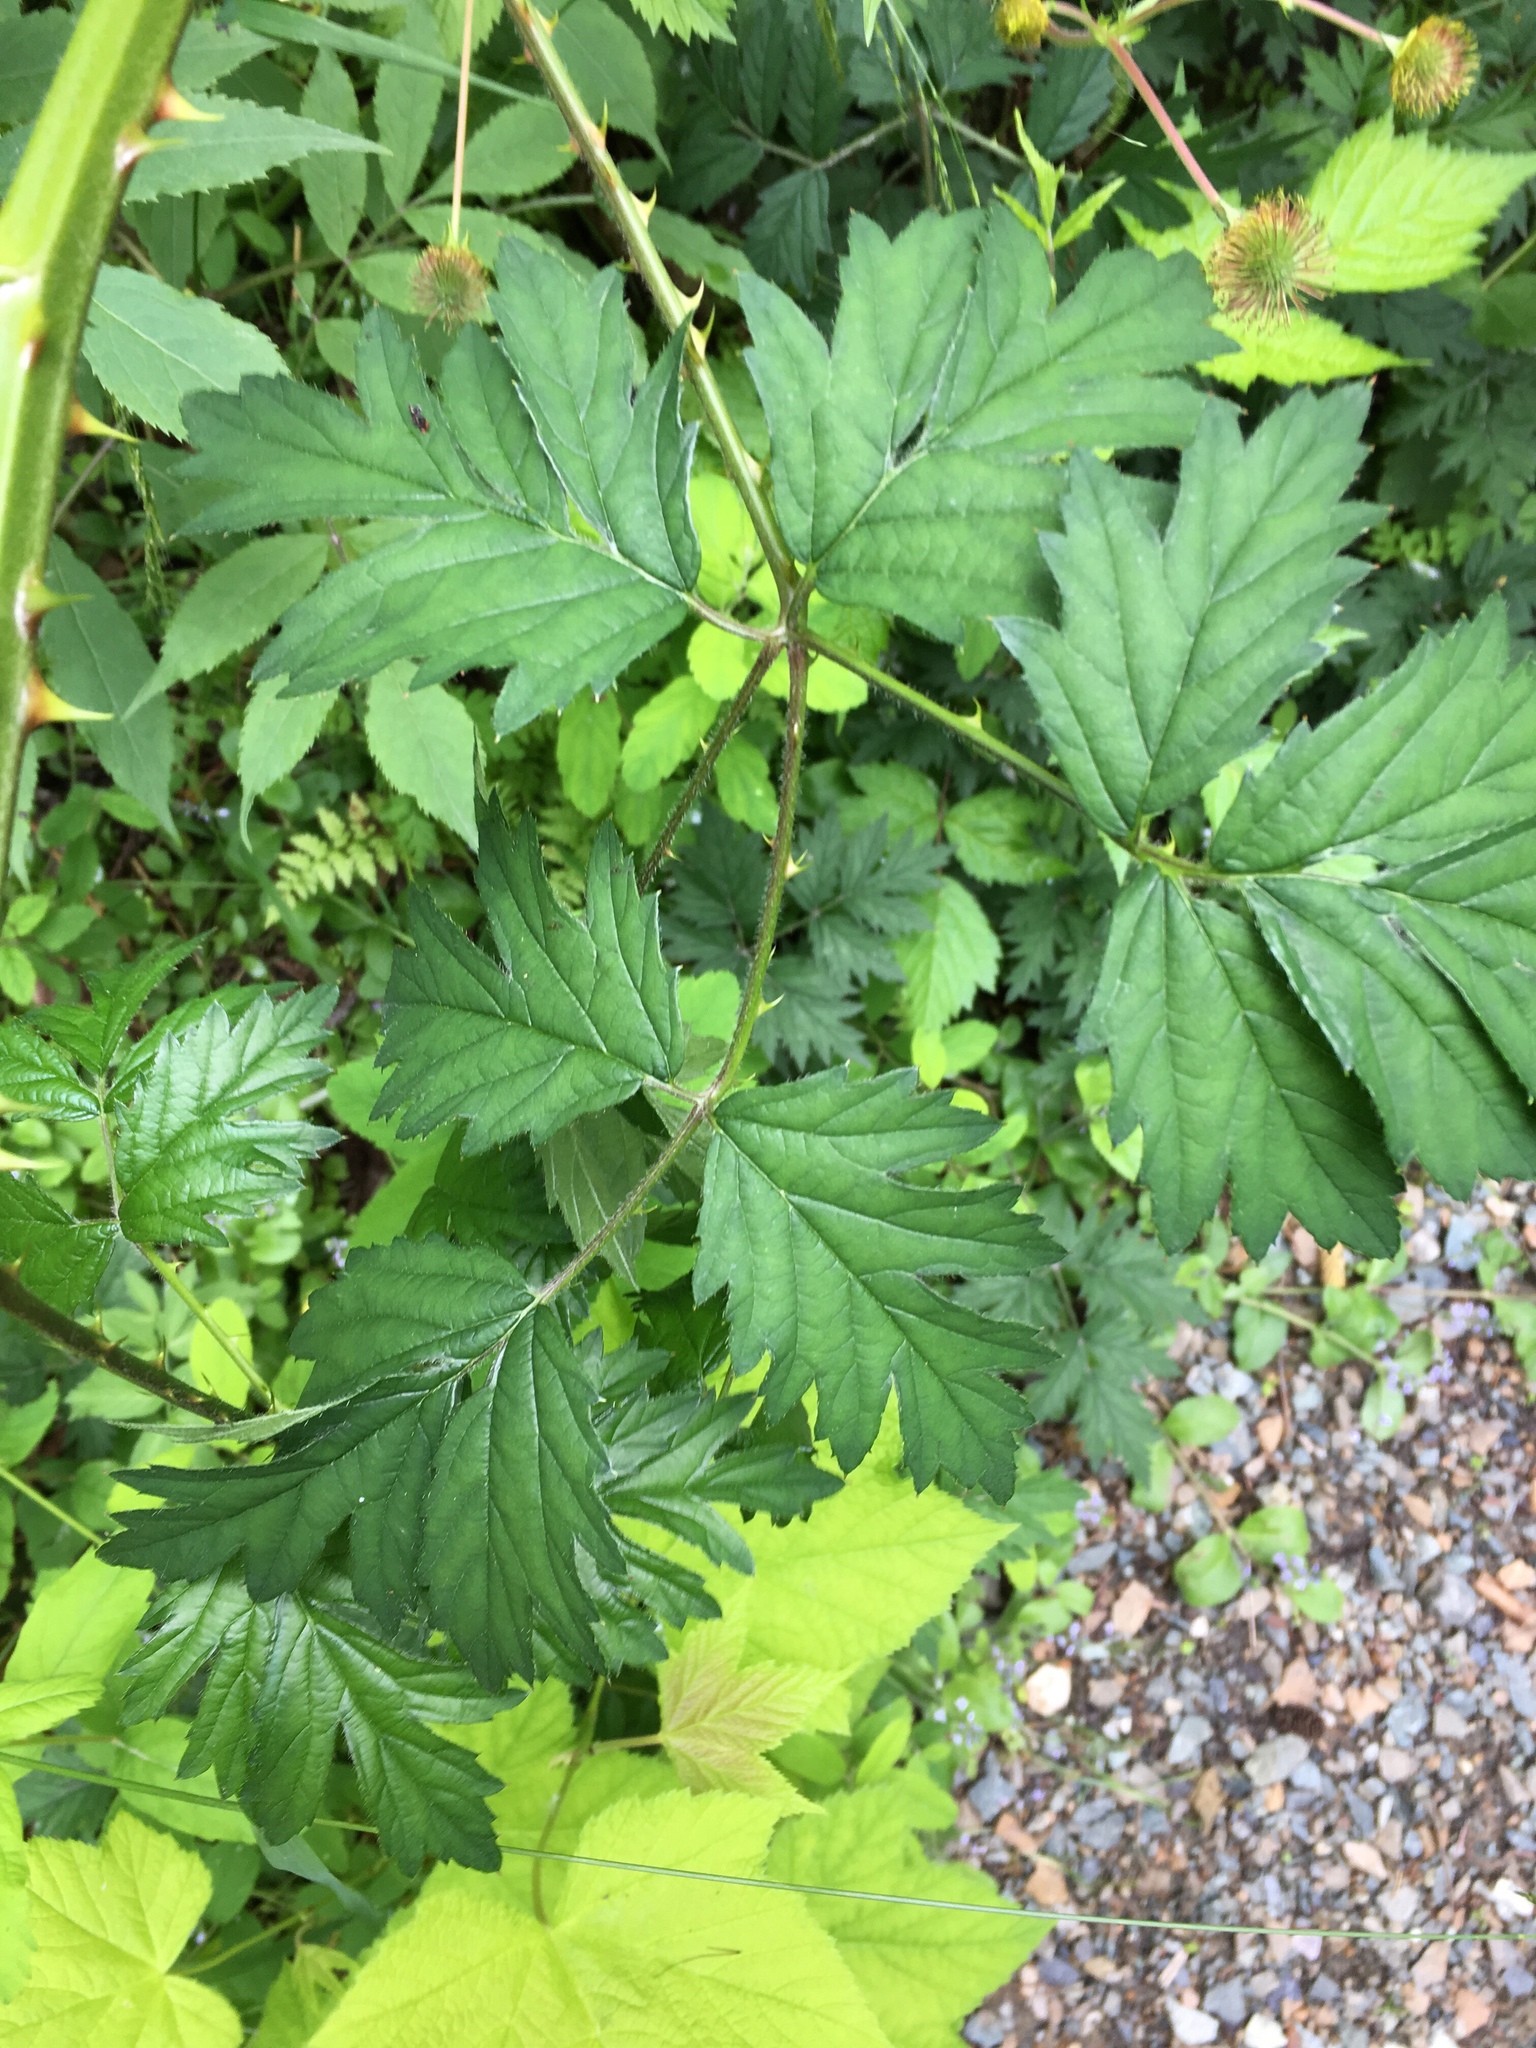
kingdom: Plantae
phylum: Tracheophyta
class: Magnoliopsida
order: Rosales
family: Rosaceae
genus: Rubus
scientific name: Rubus laciniatus
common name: Evergreen blackberry
